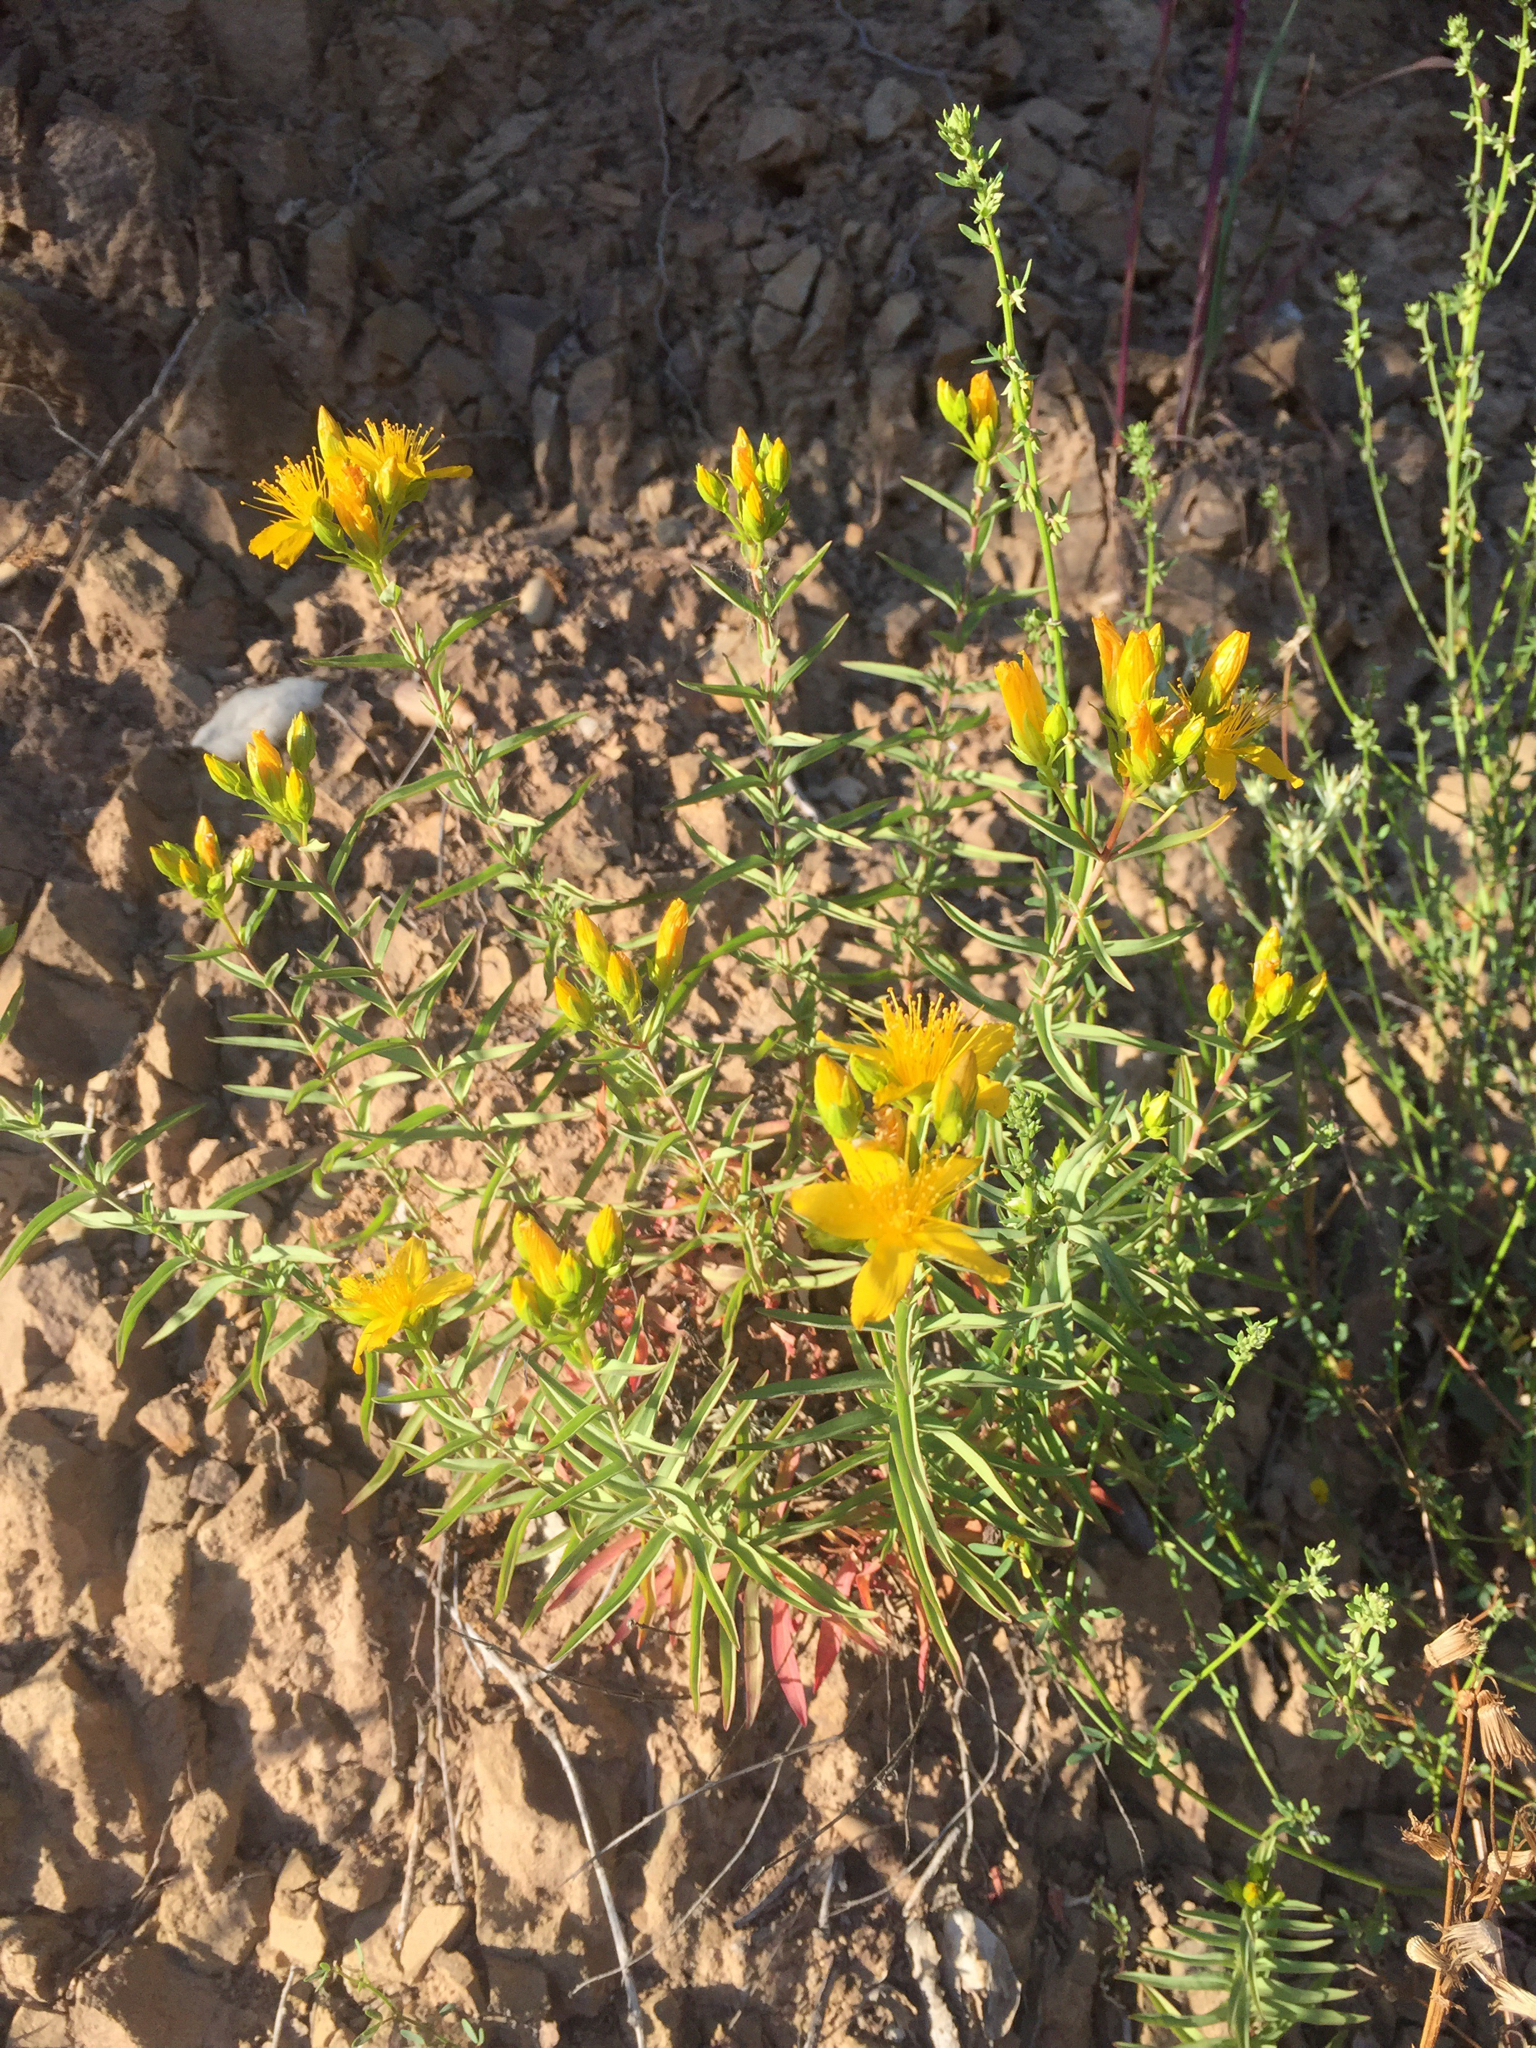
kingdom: Plantae
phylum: Tracheophyta
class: Magnoliopsida
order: Malpighiales
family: Hypericaceae
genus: Hypericum
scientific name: Hypericum concinnum
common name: Gold-wire
